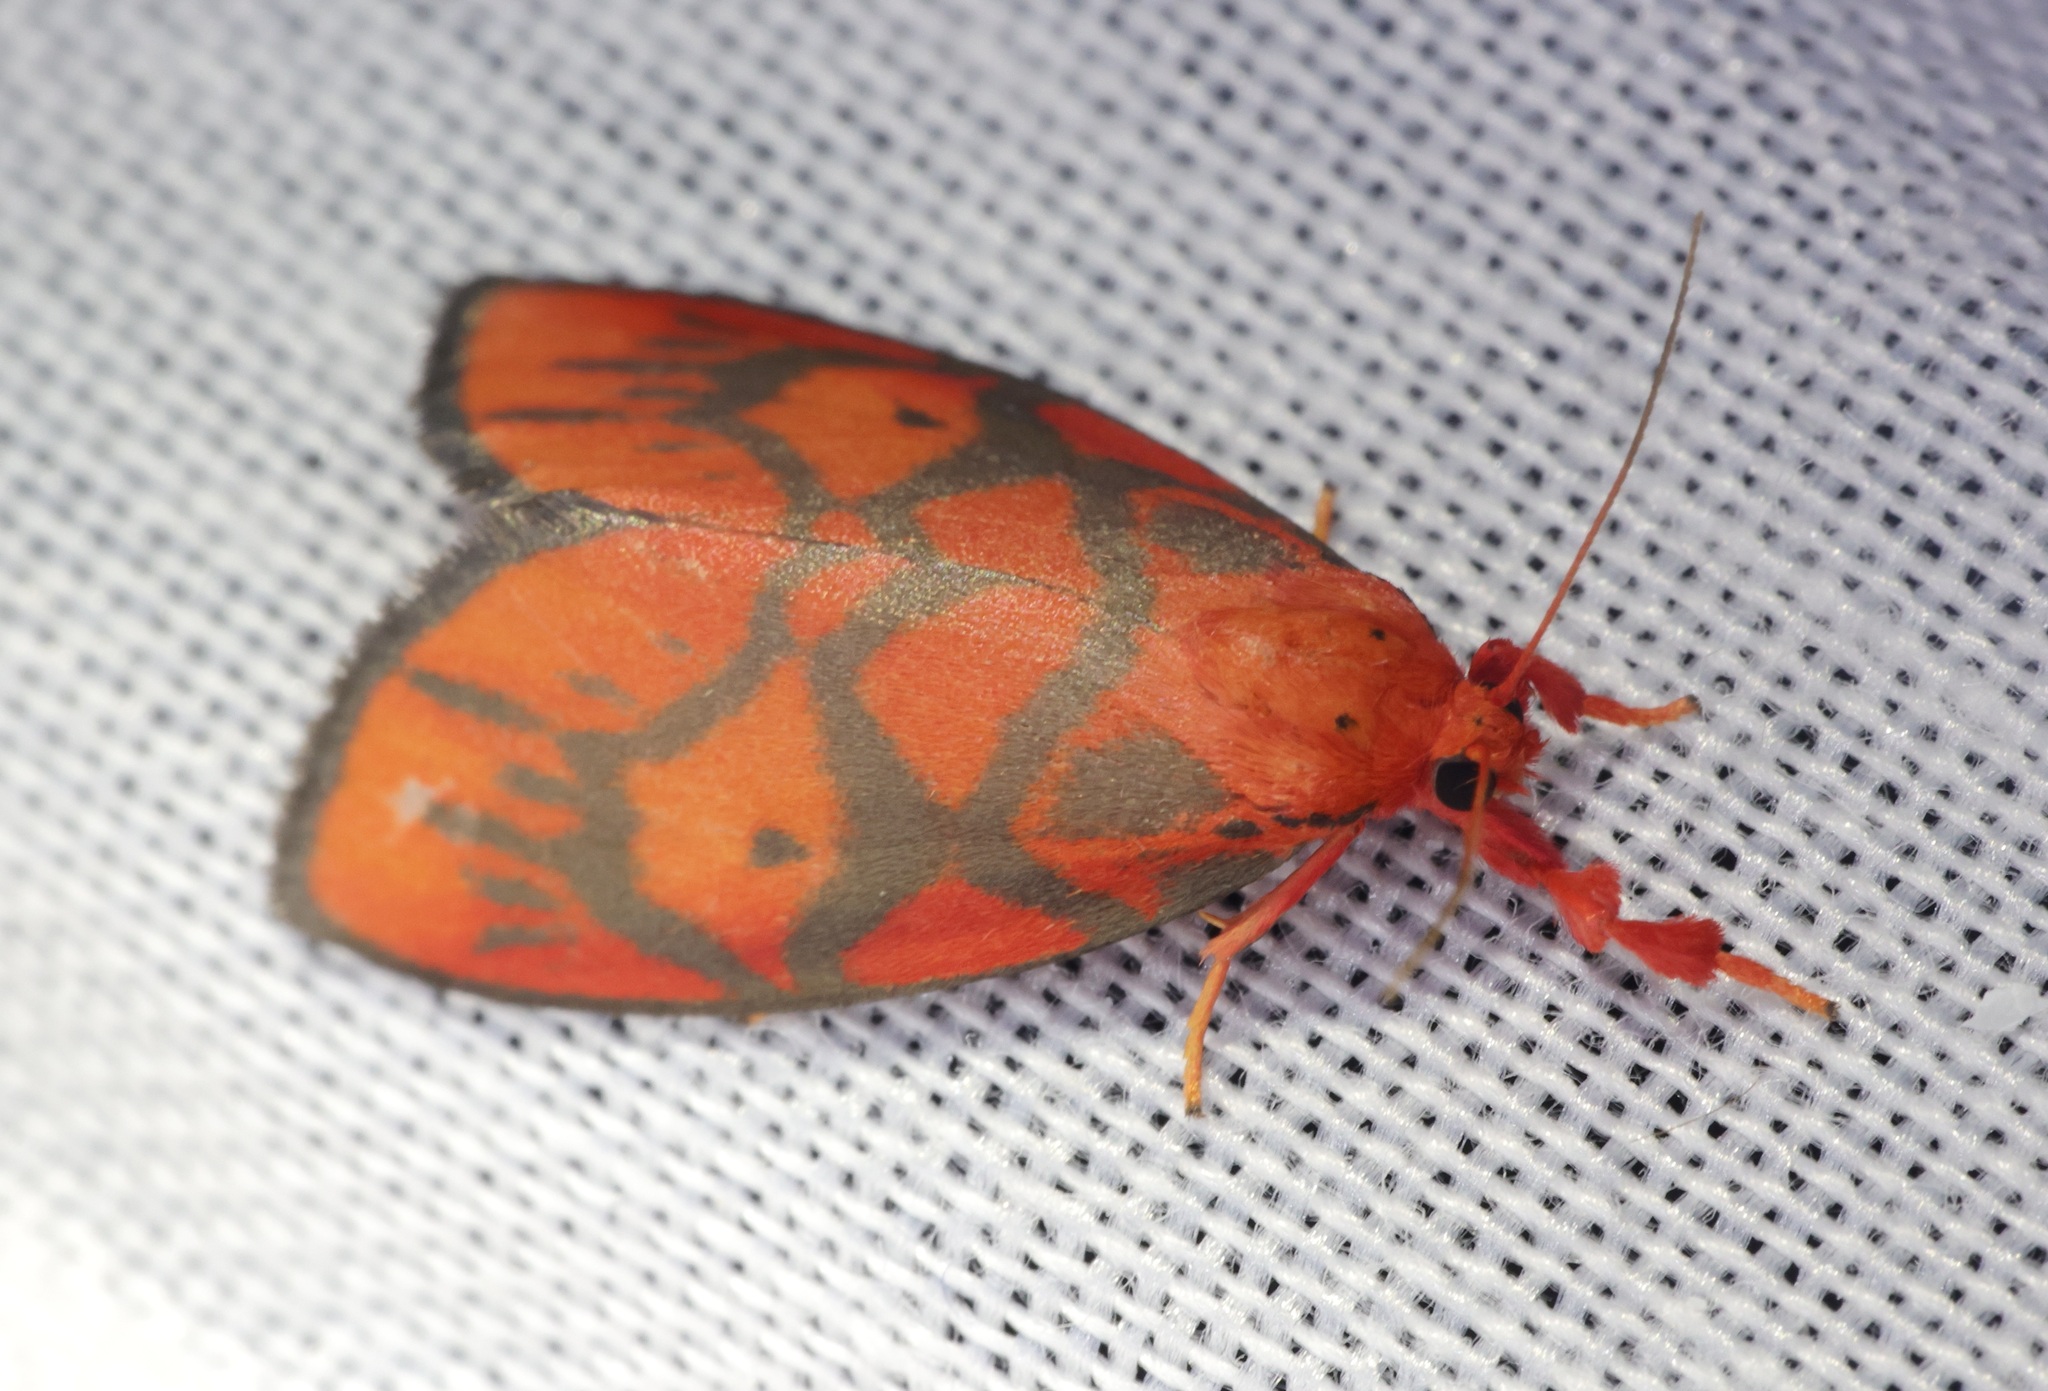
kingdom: Animalia
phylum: Arthropoda
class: Insecta
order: Lepidoptera
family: Erebidae
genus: Cornicornuta
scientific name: Cornicornuta convexa
